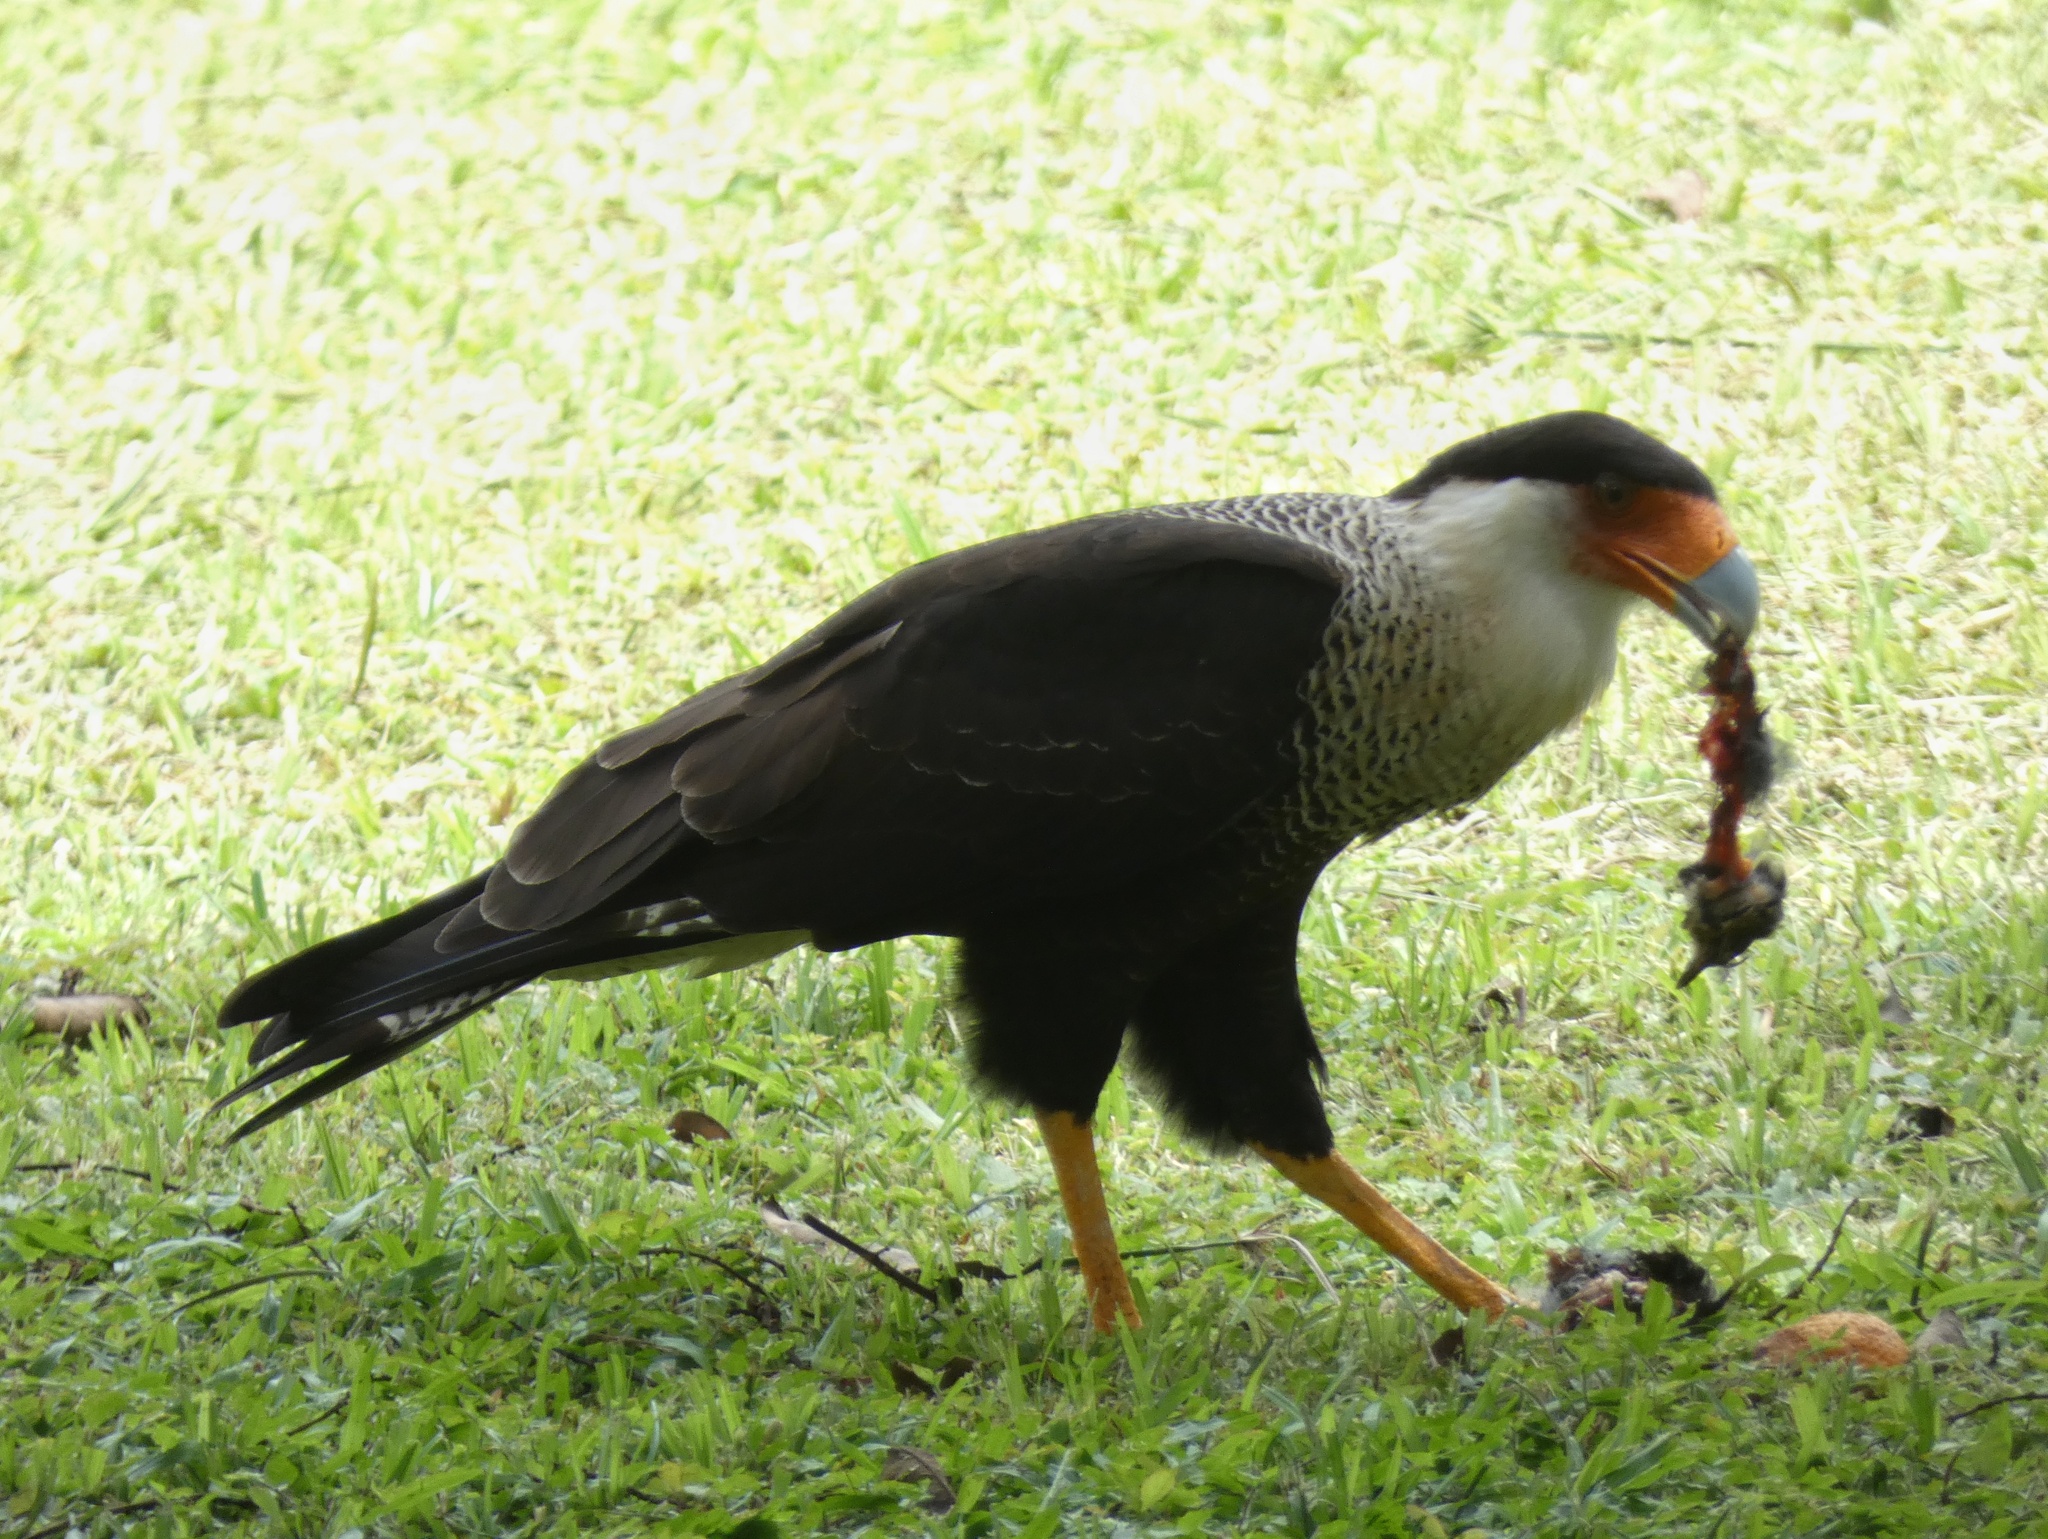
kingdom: Animalia
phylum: Chordata
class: Aves
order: Falconiformes
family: Falconidae
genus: Caracara
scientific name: Caracara plancus
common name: Southern caracara
